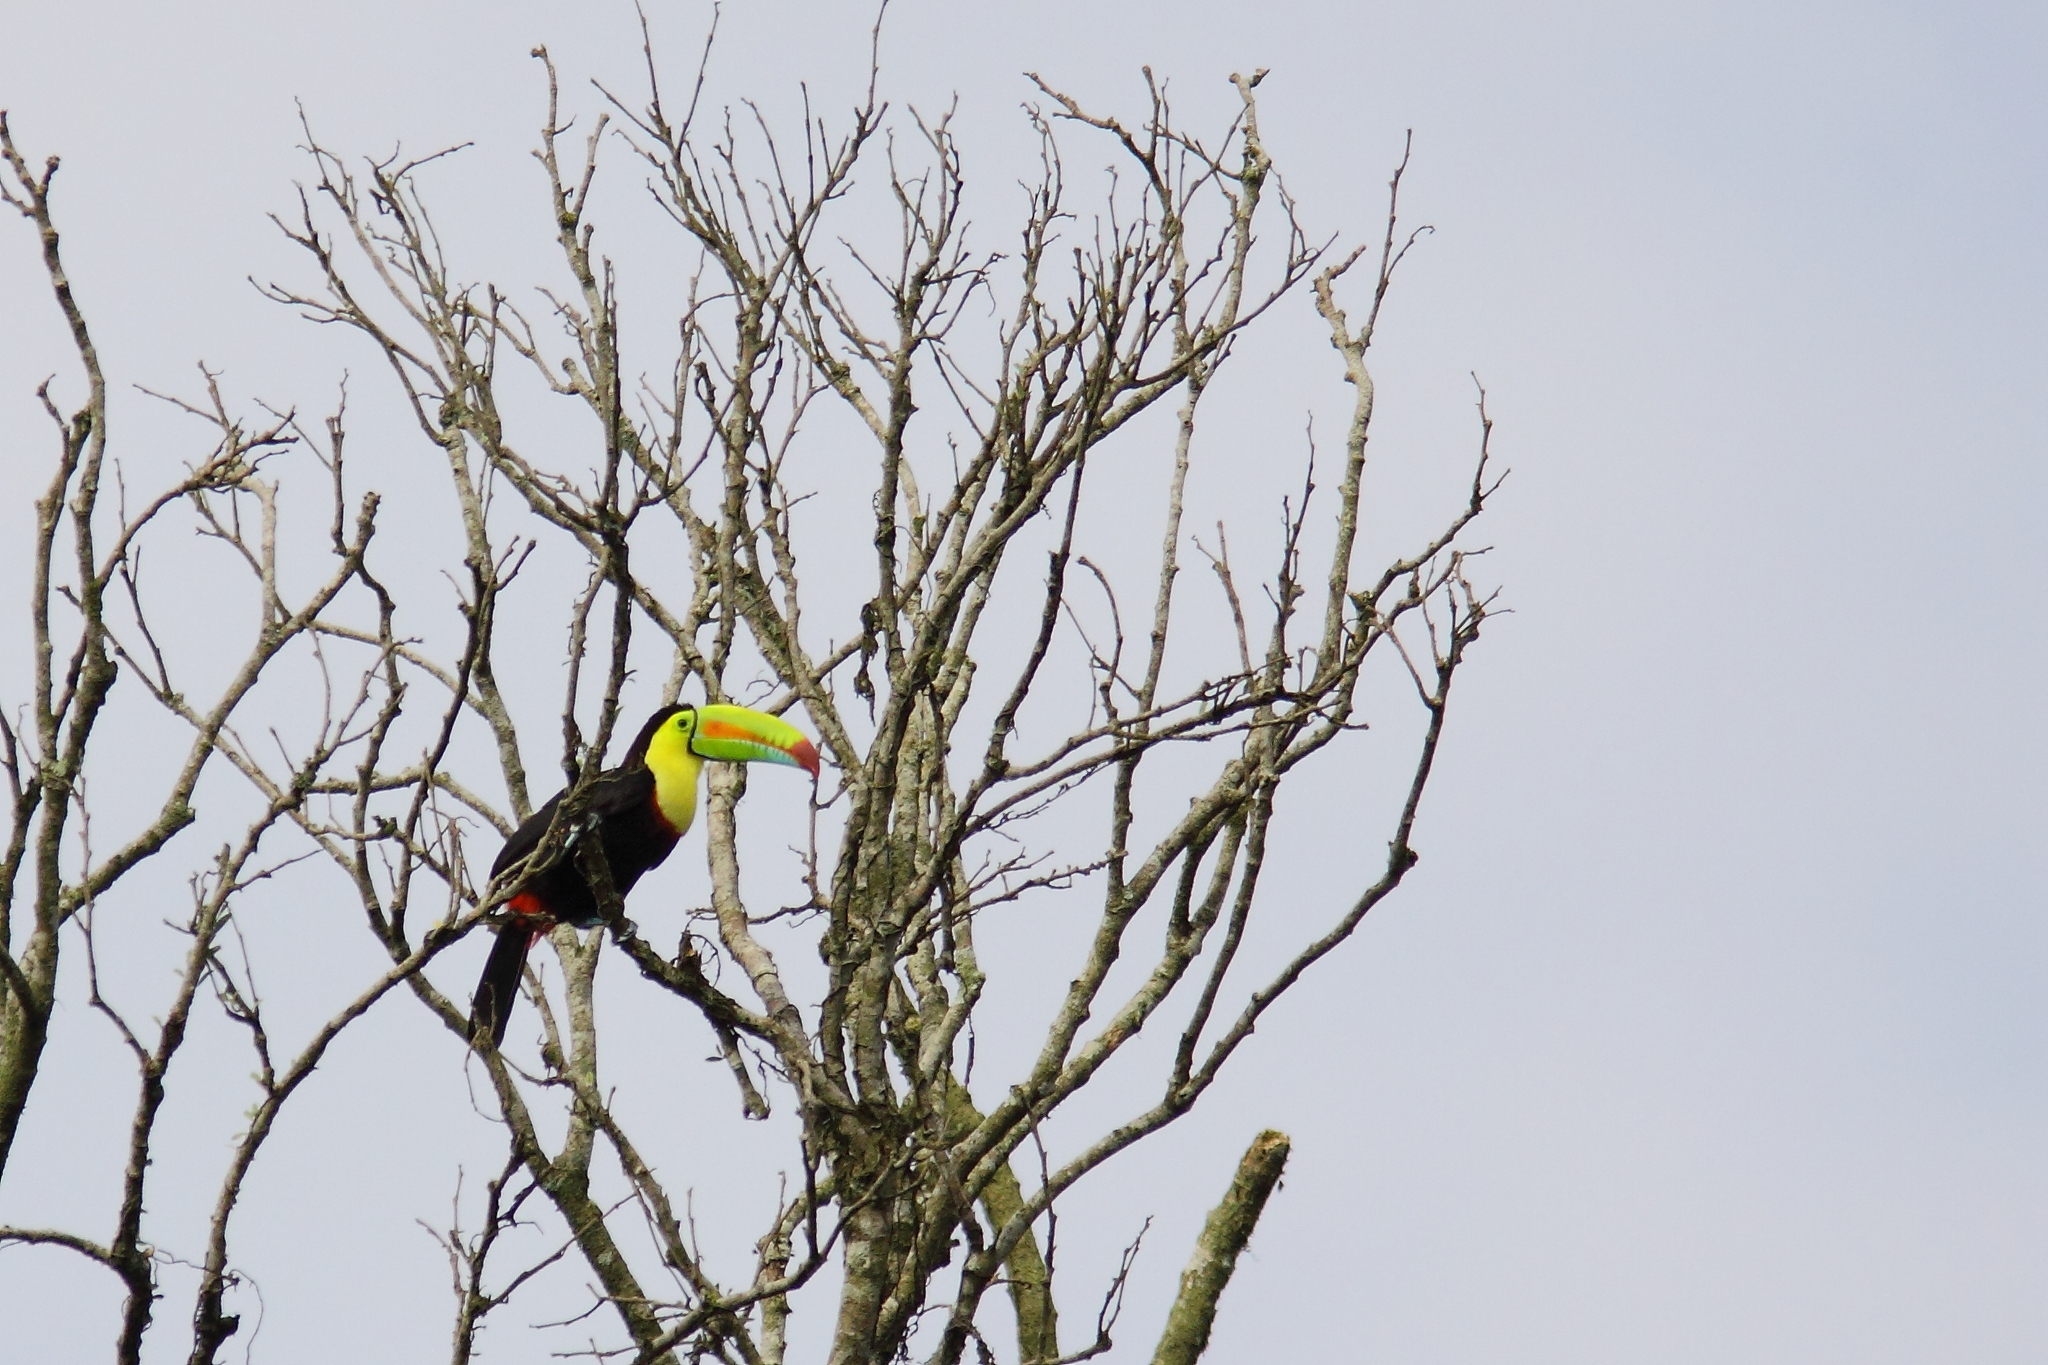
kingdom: Animalia
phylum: Chordata
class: Aves
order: Piciformes
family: Ramphastidae
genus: Ramphastos
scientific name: Ramphastos sulfuratus
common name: Keel-billed toucan
